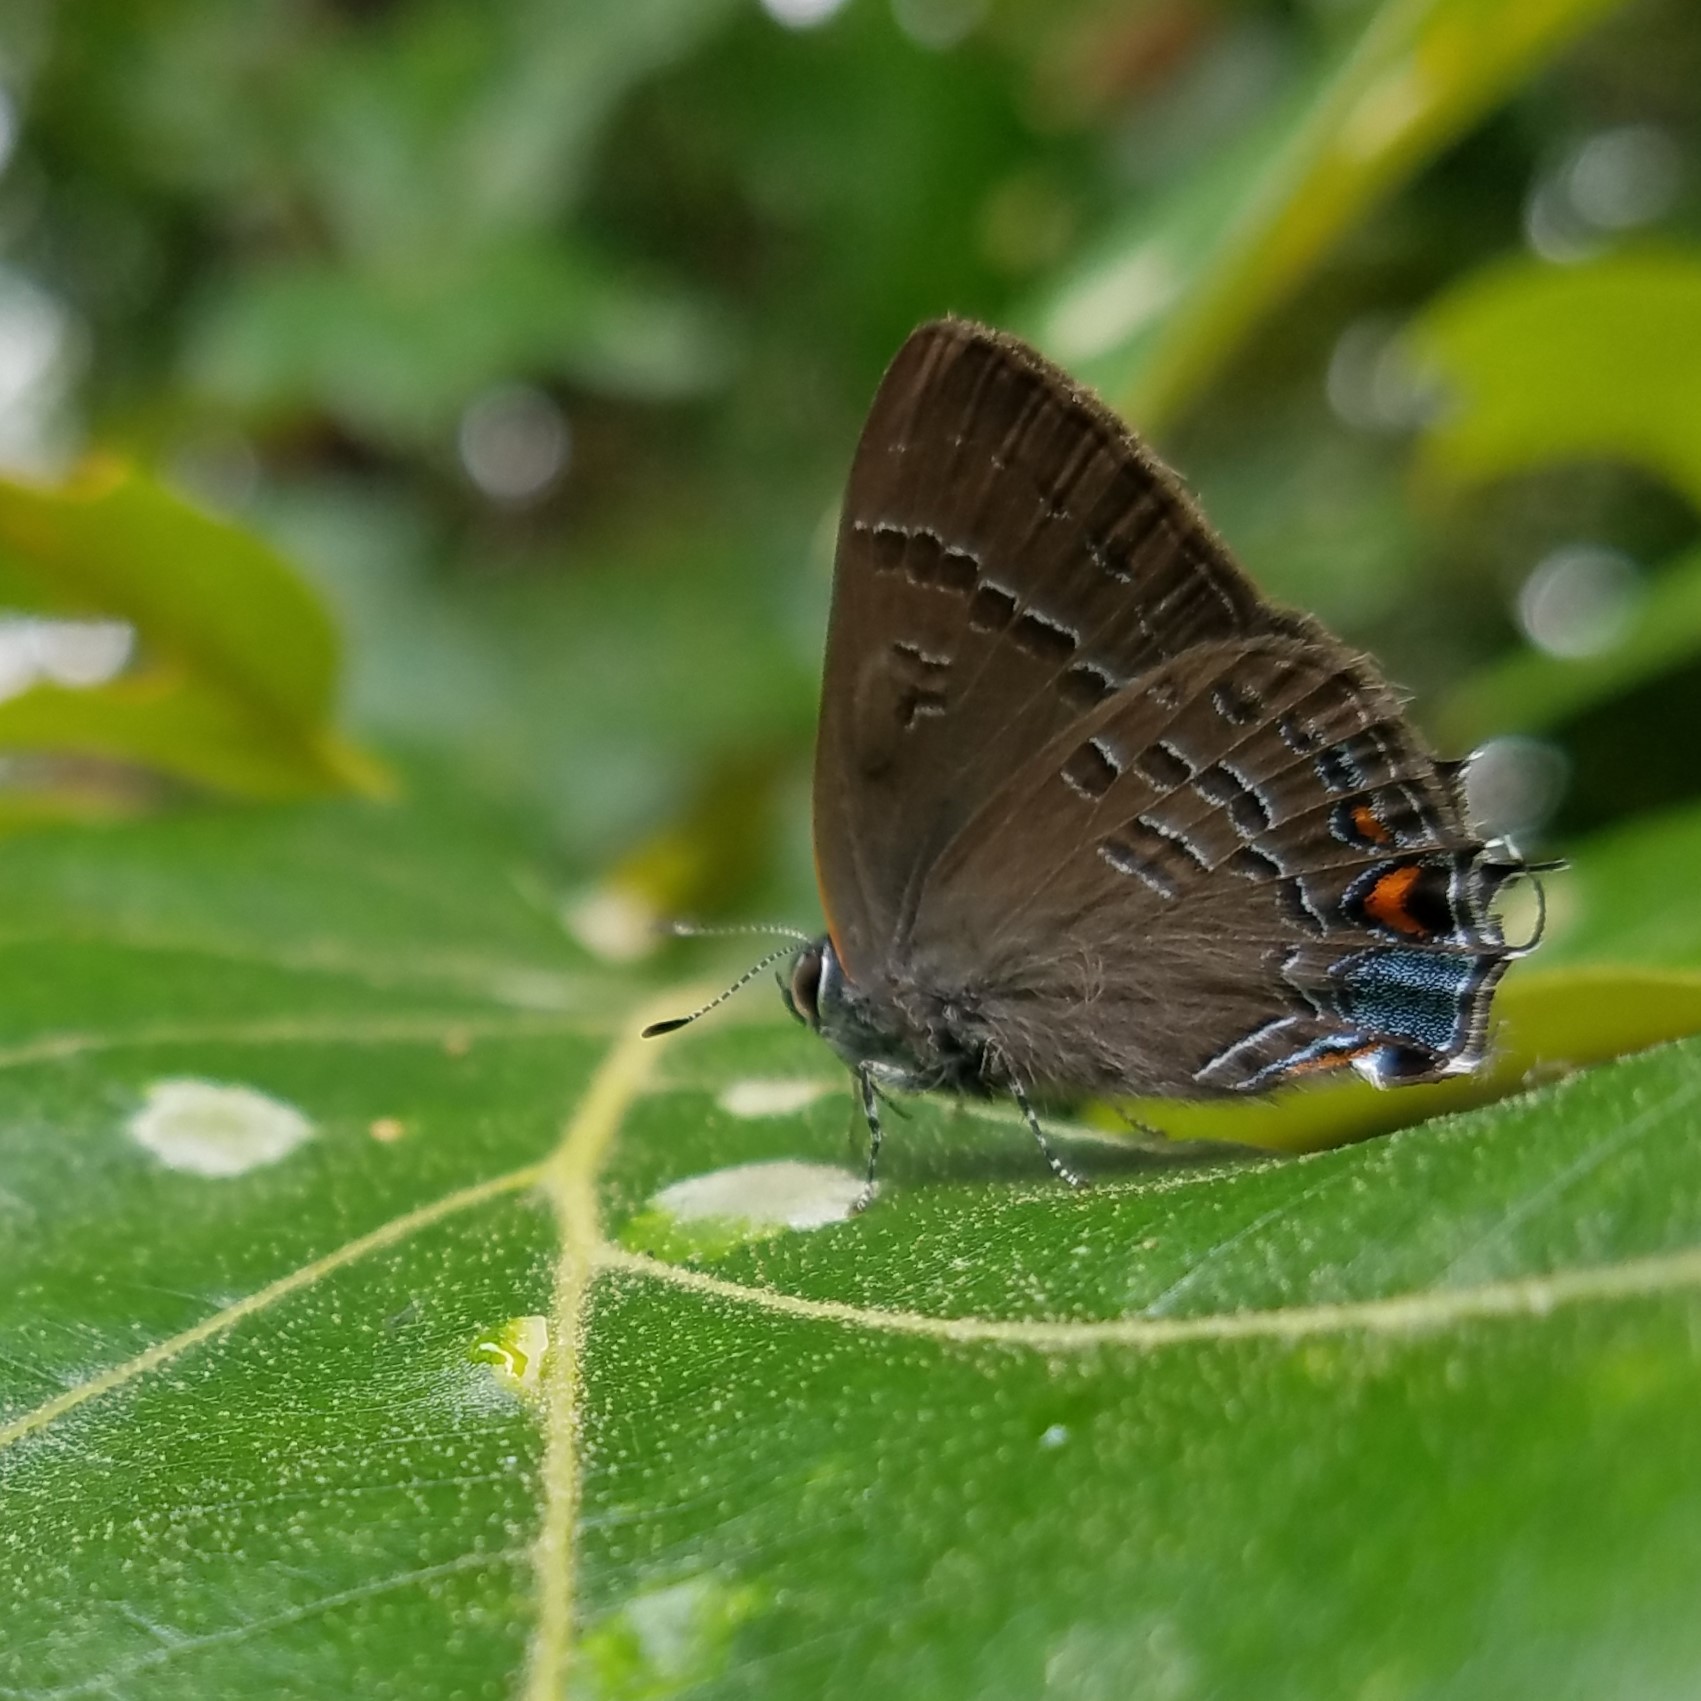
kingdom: Animalia
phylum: Arthropoda
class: Insecta
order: Lepidoptera
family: Lycaenidae
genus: Satyrium
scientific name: Satyrium calanus
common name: Banded hairstreak
